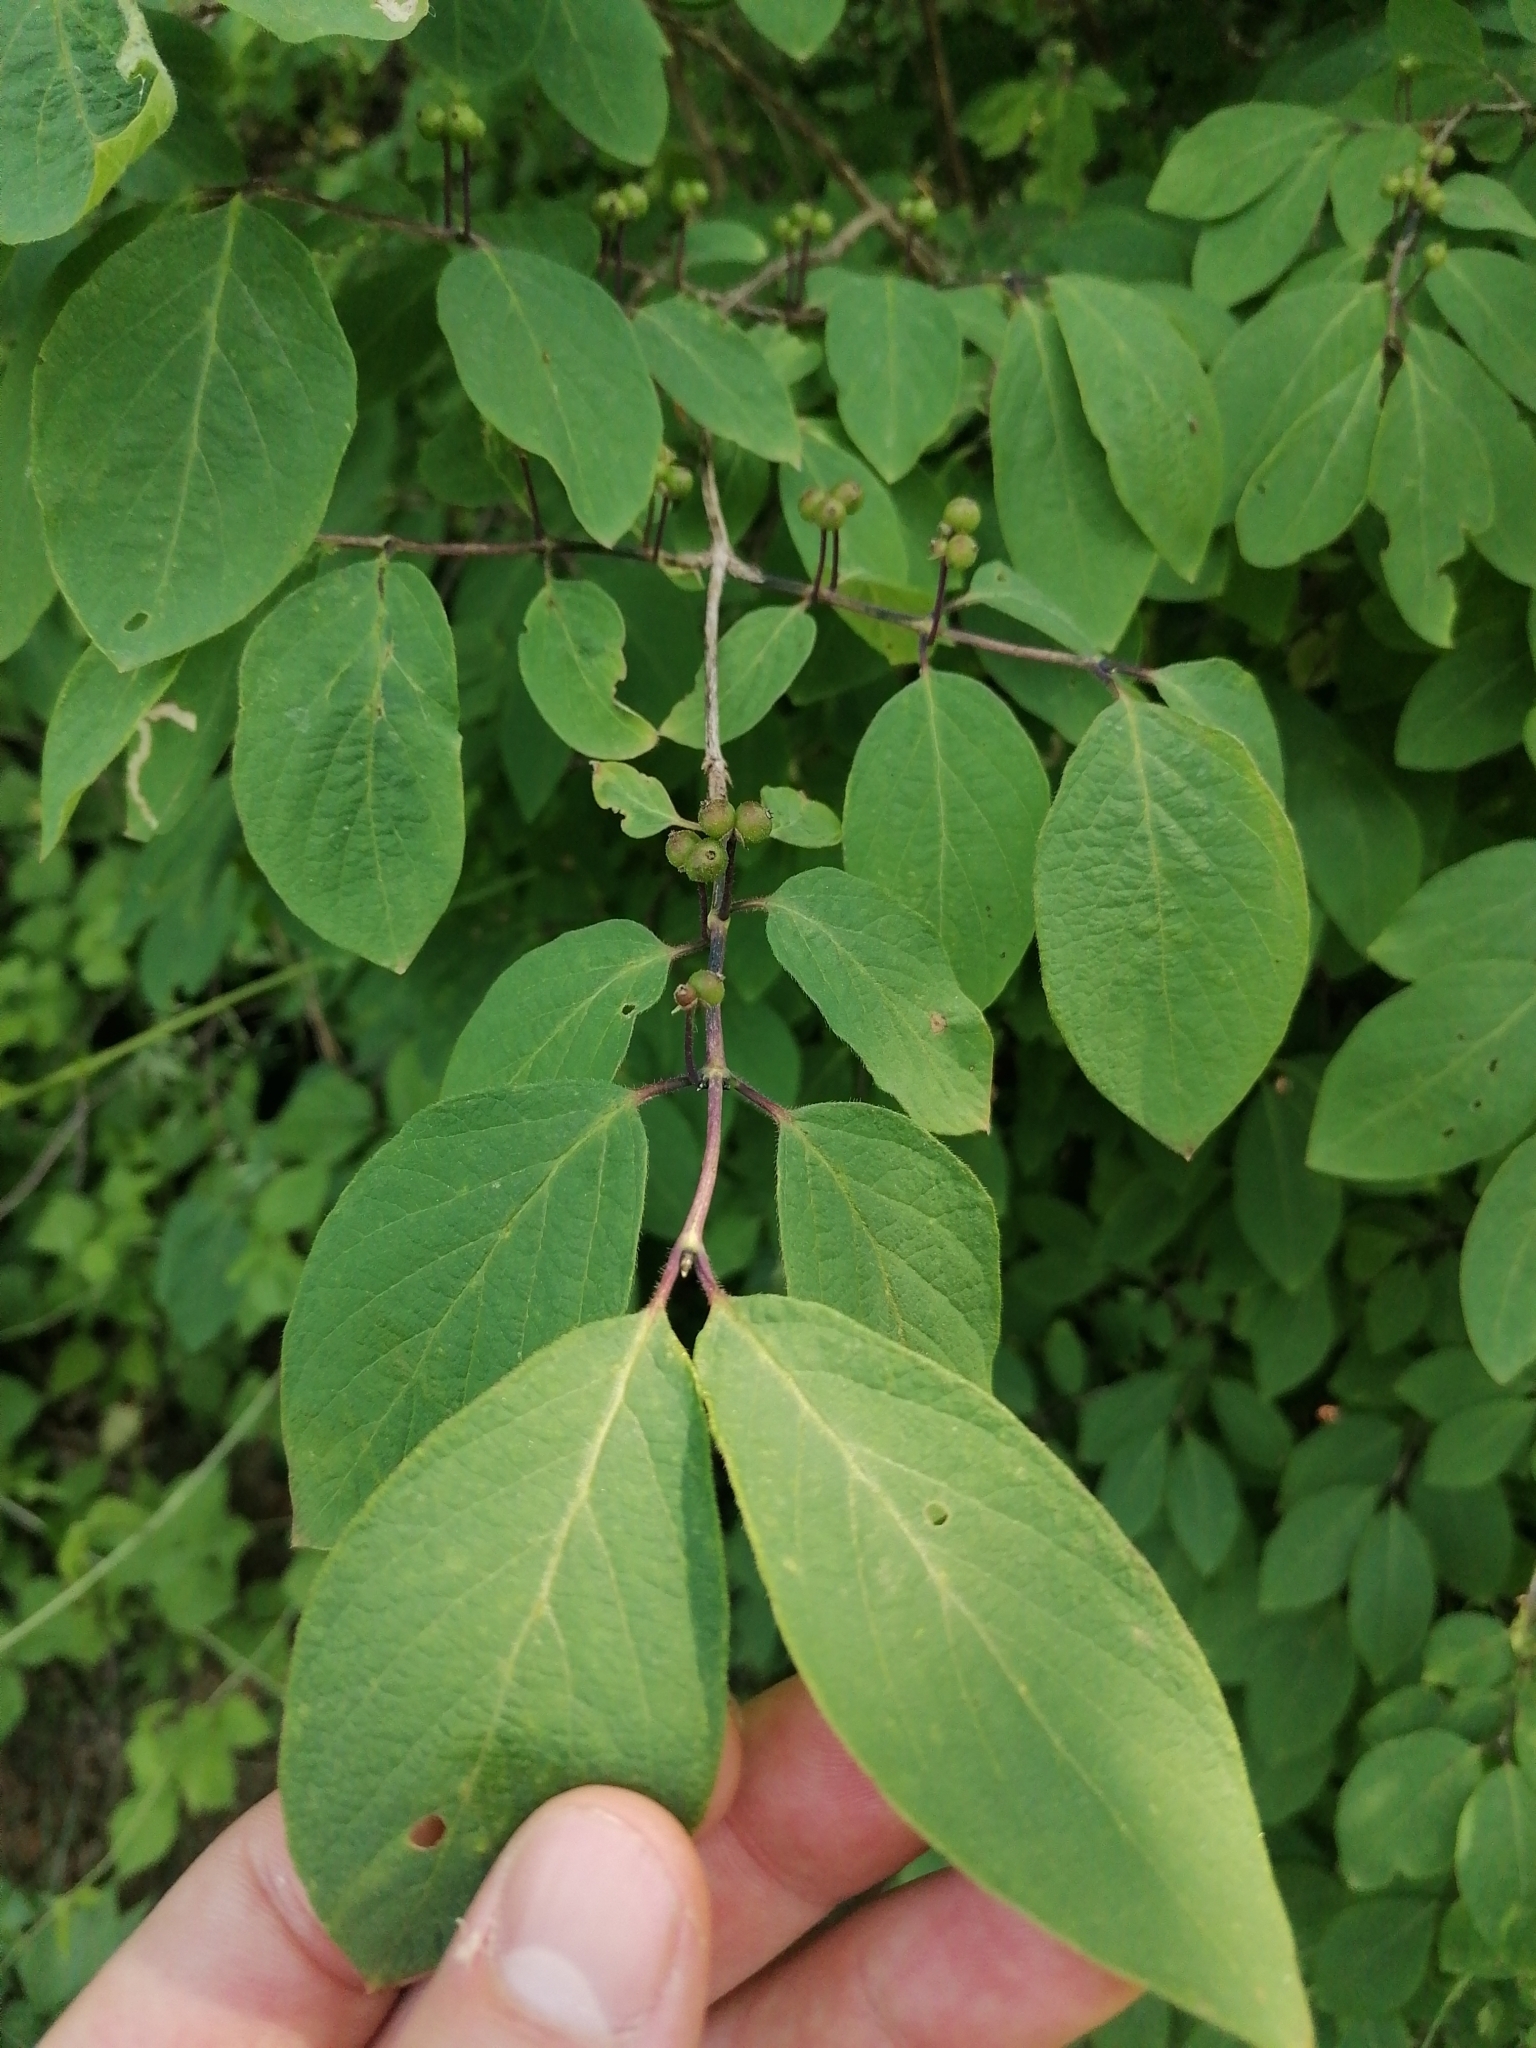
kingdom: Plantae
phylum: Tracheophyta
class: Magnoliopsida
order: Dipsacales
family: Caprifoliaceae
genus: Lonicera
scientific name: Lonicera xylosteum
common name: Fly honeysuckle
